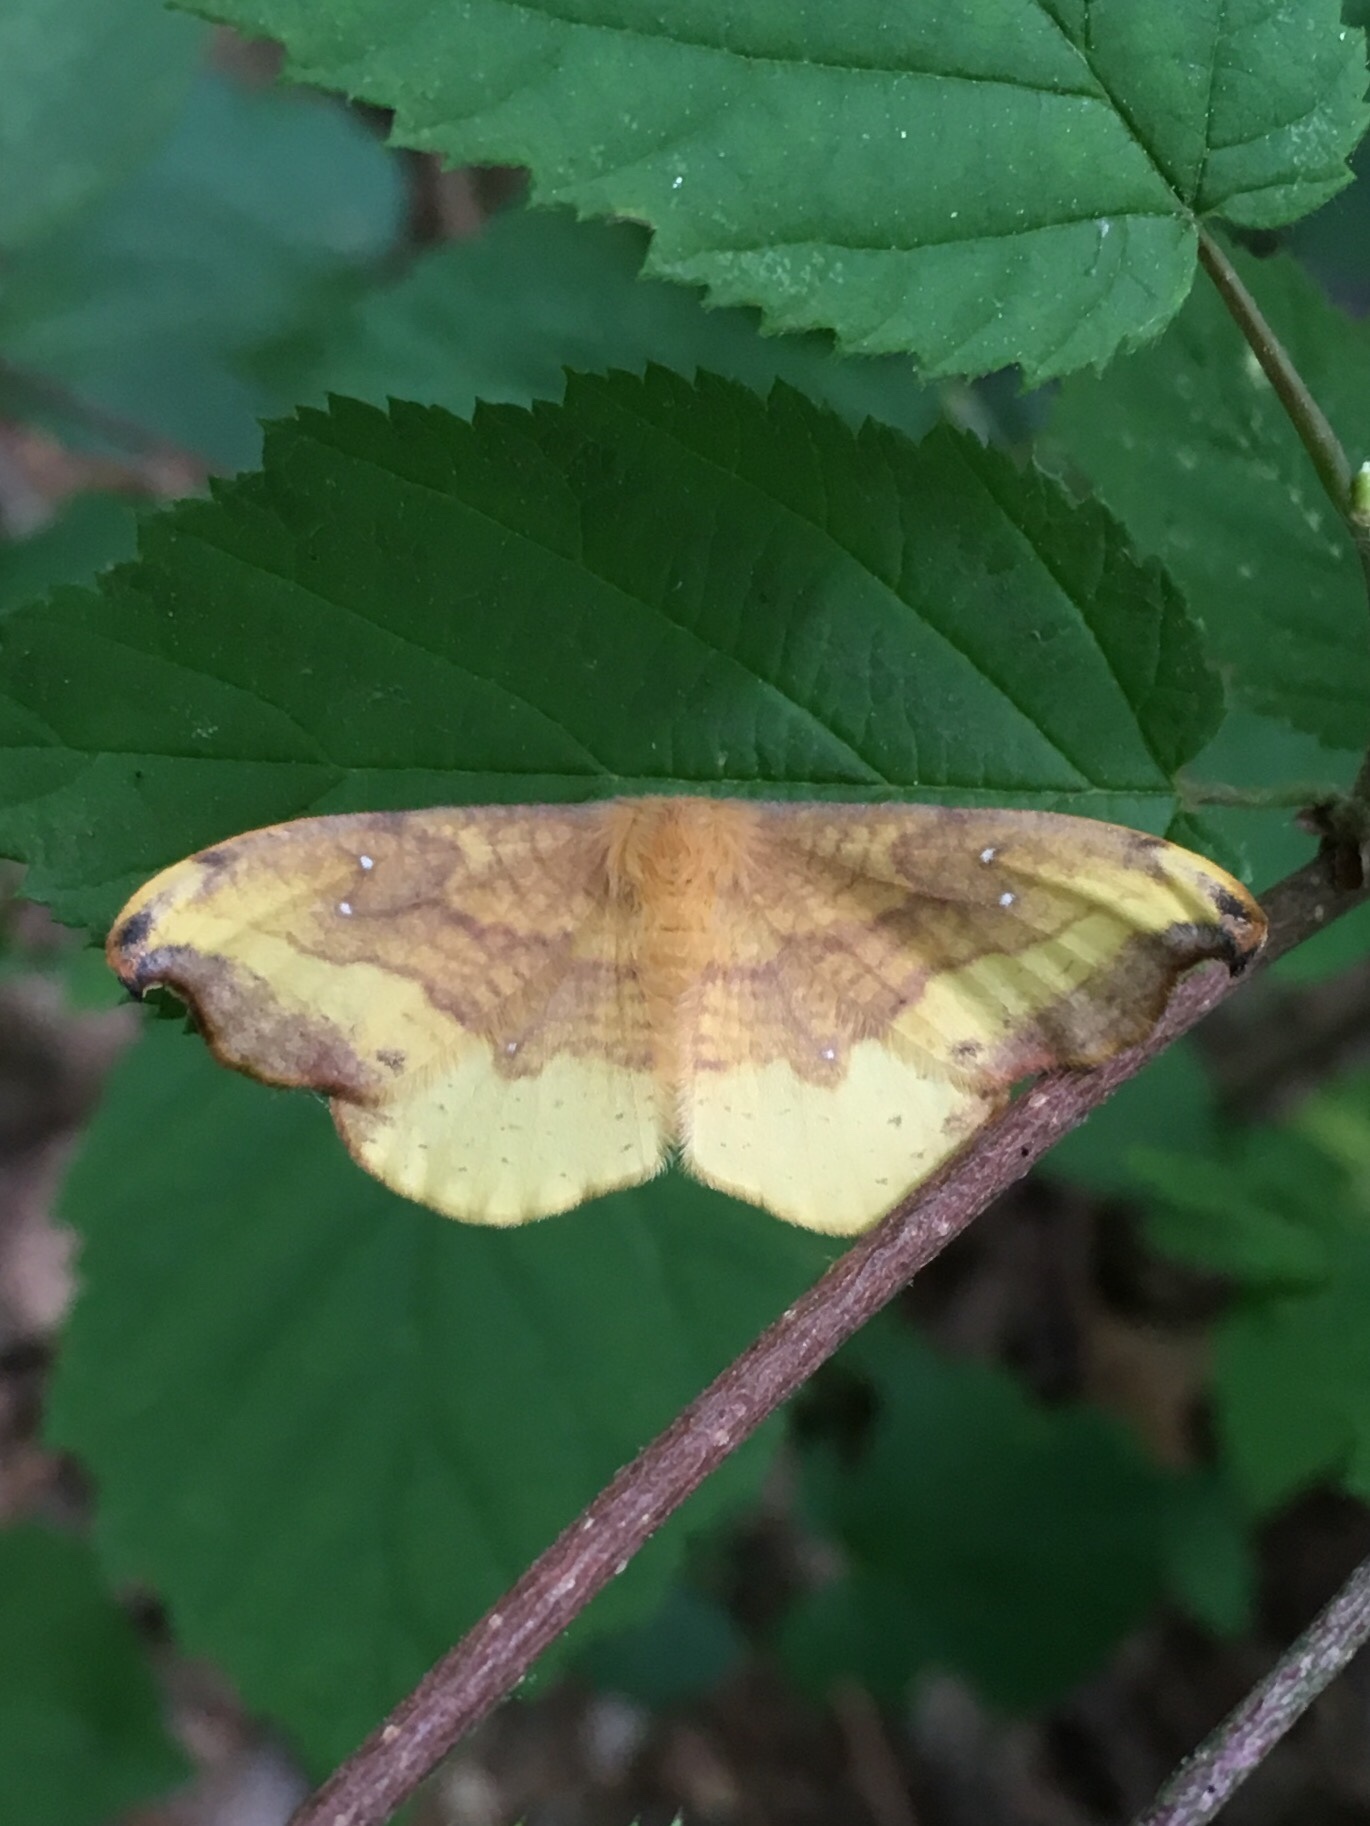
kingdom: Animalia
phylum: Arthropoda
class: Insecta
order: Lepidoptera
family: Drepanidae
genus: Oreta
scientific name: Oreta rosea
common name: Rose hooktip
